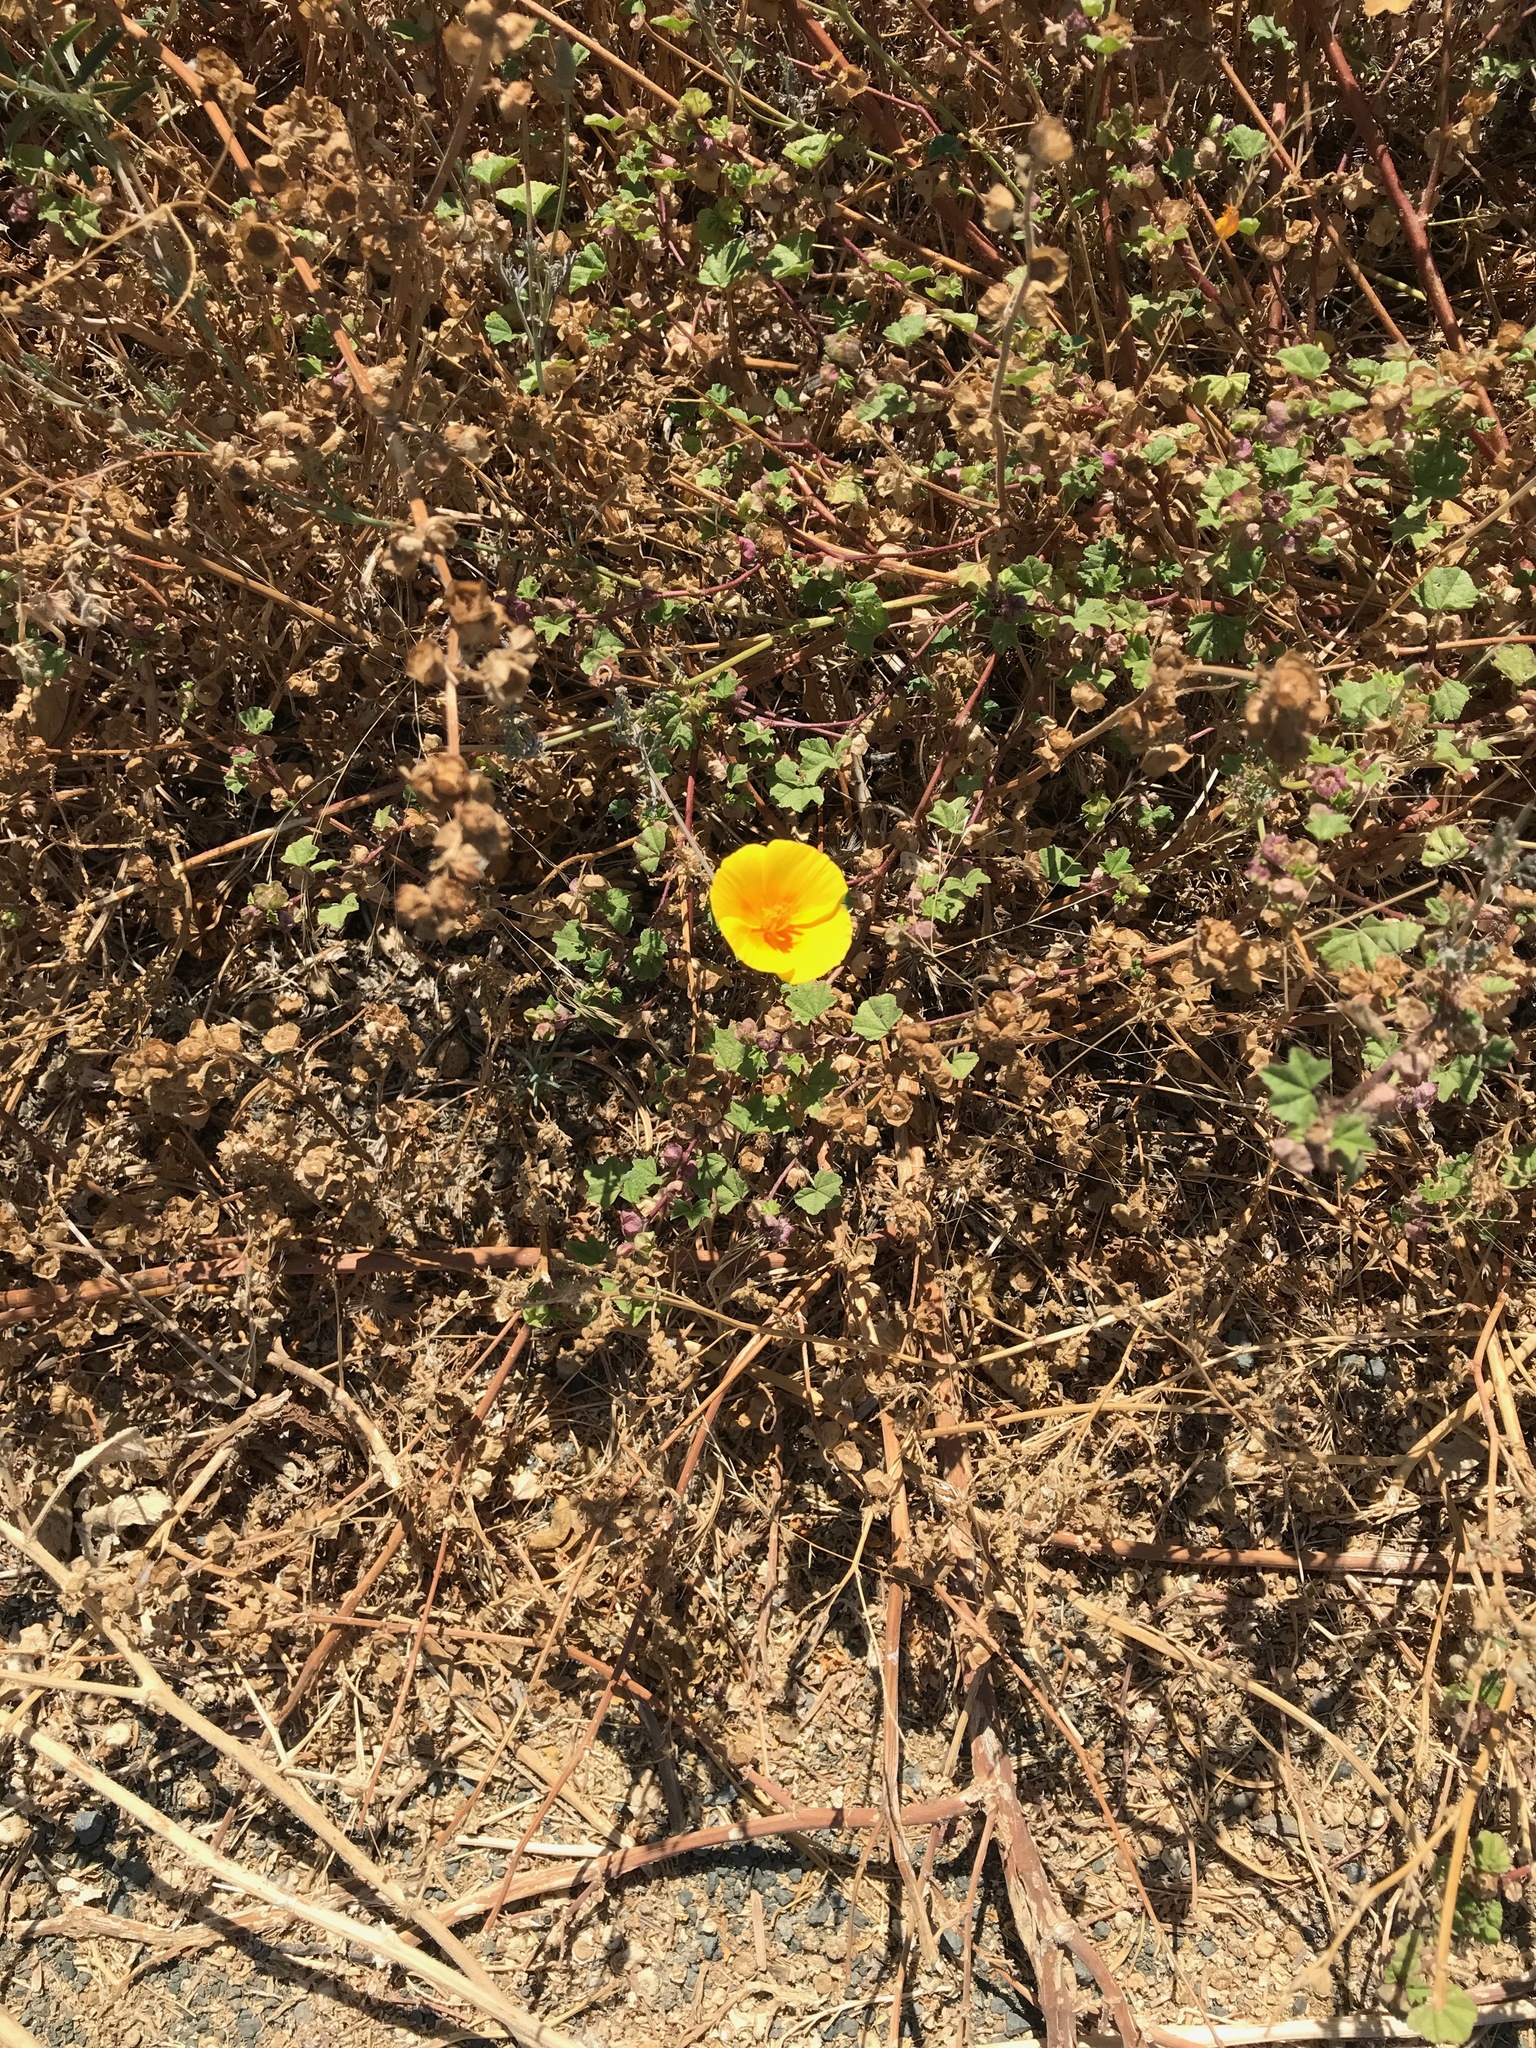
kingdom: Plantae
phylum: Tracheophyta
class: Magnoliopsida
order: Ranunculales
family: Papaveraceae
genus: Eschscholzia
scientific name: Eschscholzia californica
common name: California poppy
